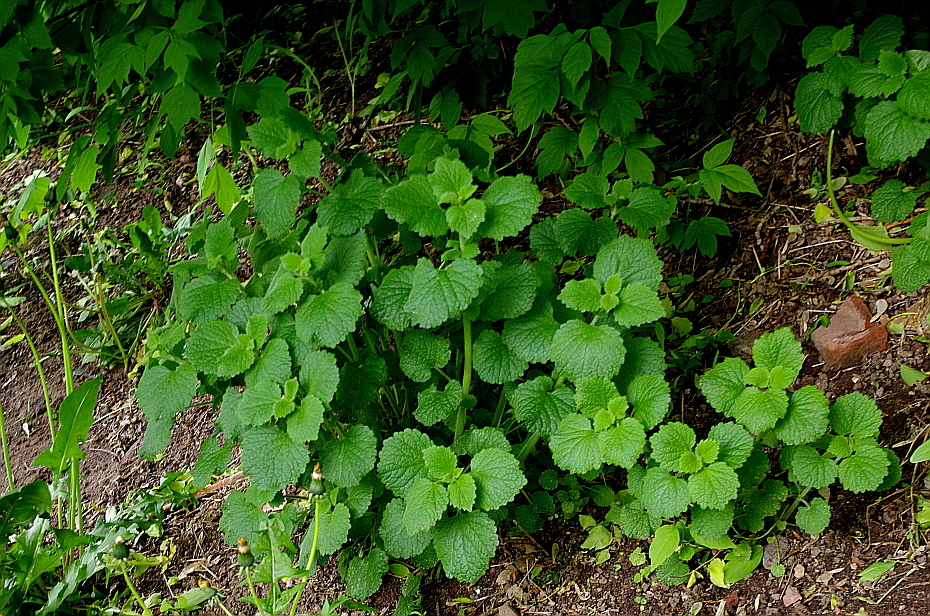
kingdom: Plantae
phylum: Tracheophyta
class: Magnoliopsida
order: Lamiales
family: Lamiaceae
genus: Ballota
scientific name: Ballota nigra
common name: Black horehound
